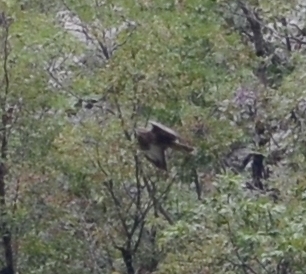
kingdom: Animalia
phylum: Chordata
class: Aves
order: Accipitriformes
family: Accipitridae
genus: Buteo
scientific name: Buteo buteo
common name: Common buzzard
